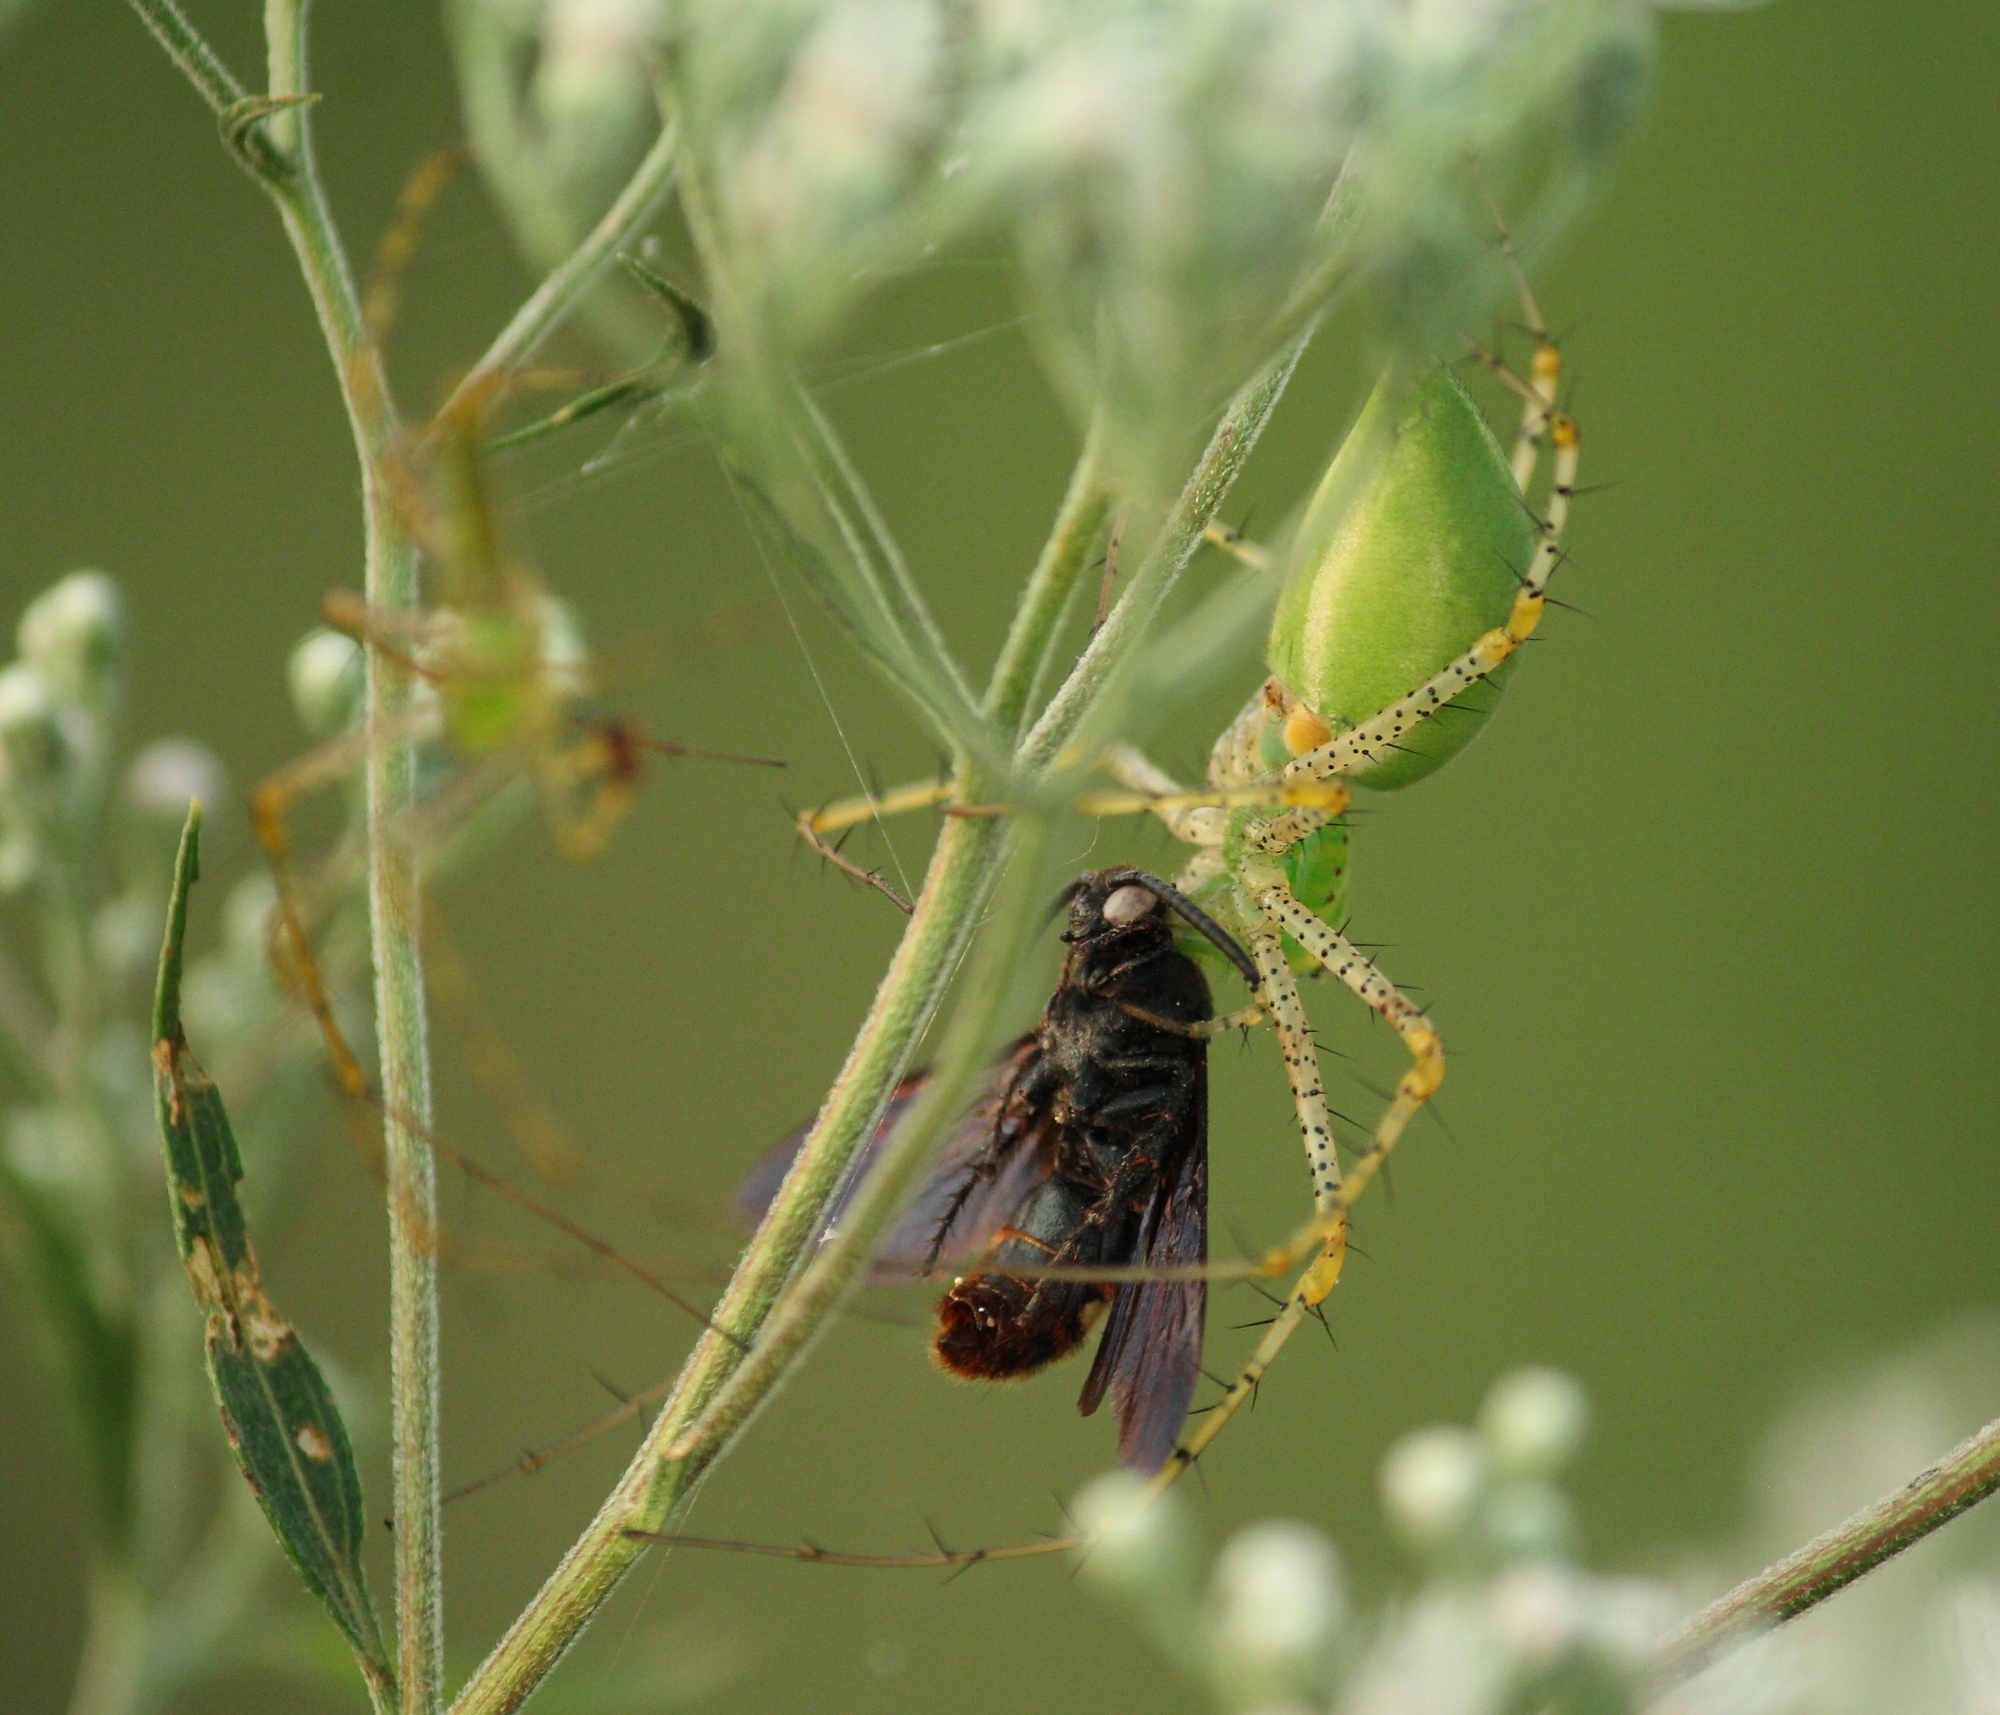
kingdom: Animalia
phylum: Arthropoda
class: Arachnida
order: Araneae
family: Oxyopidae
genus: Peucetia
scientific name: Peucetia viridans
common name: Lynx spiders
